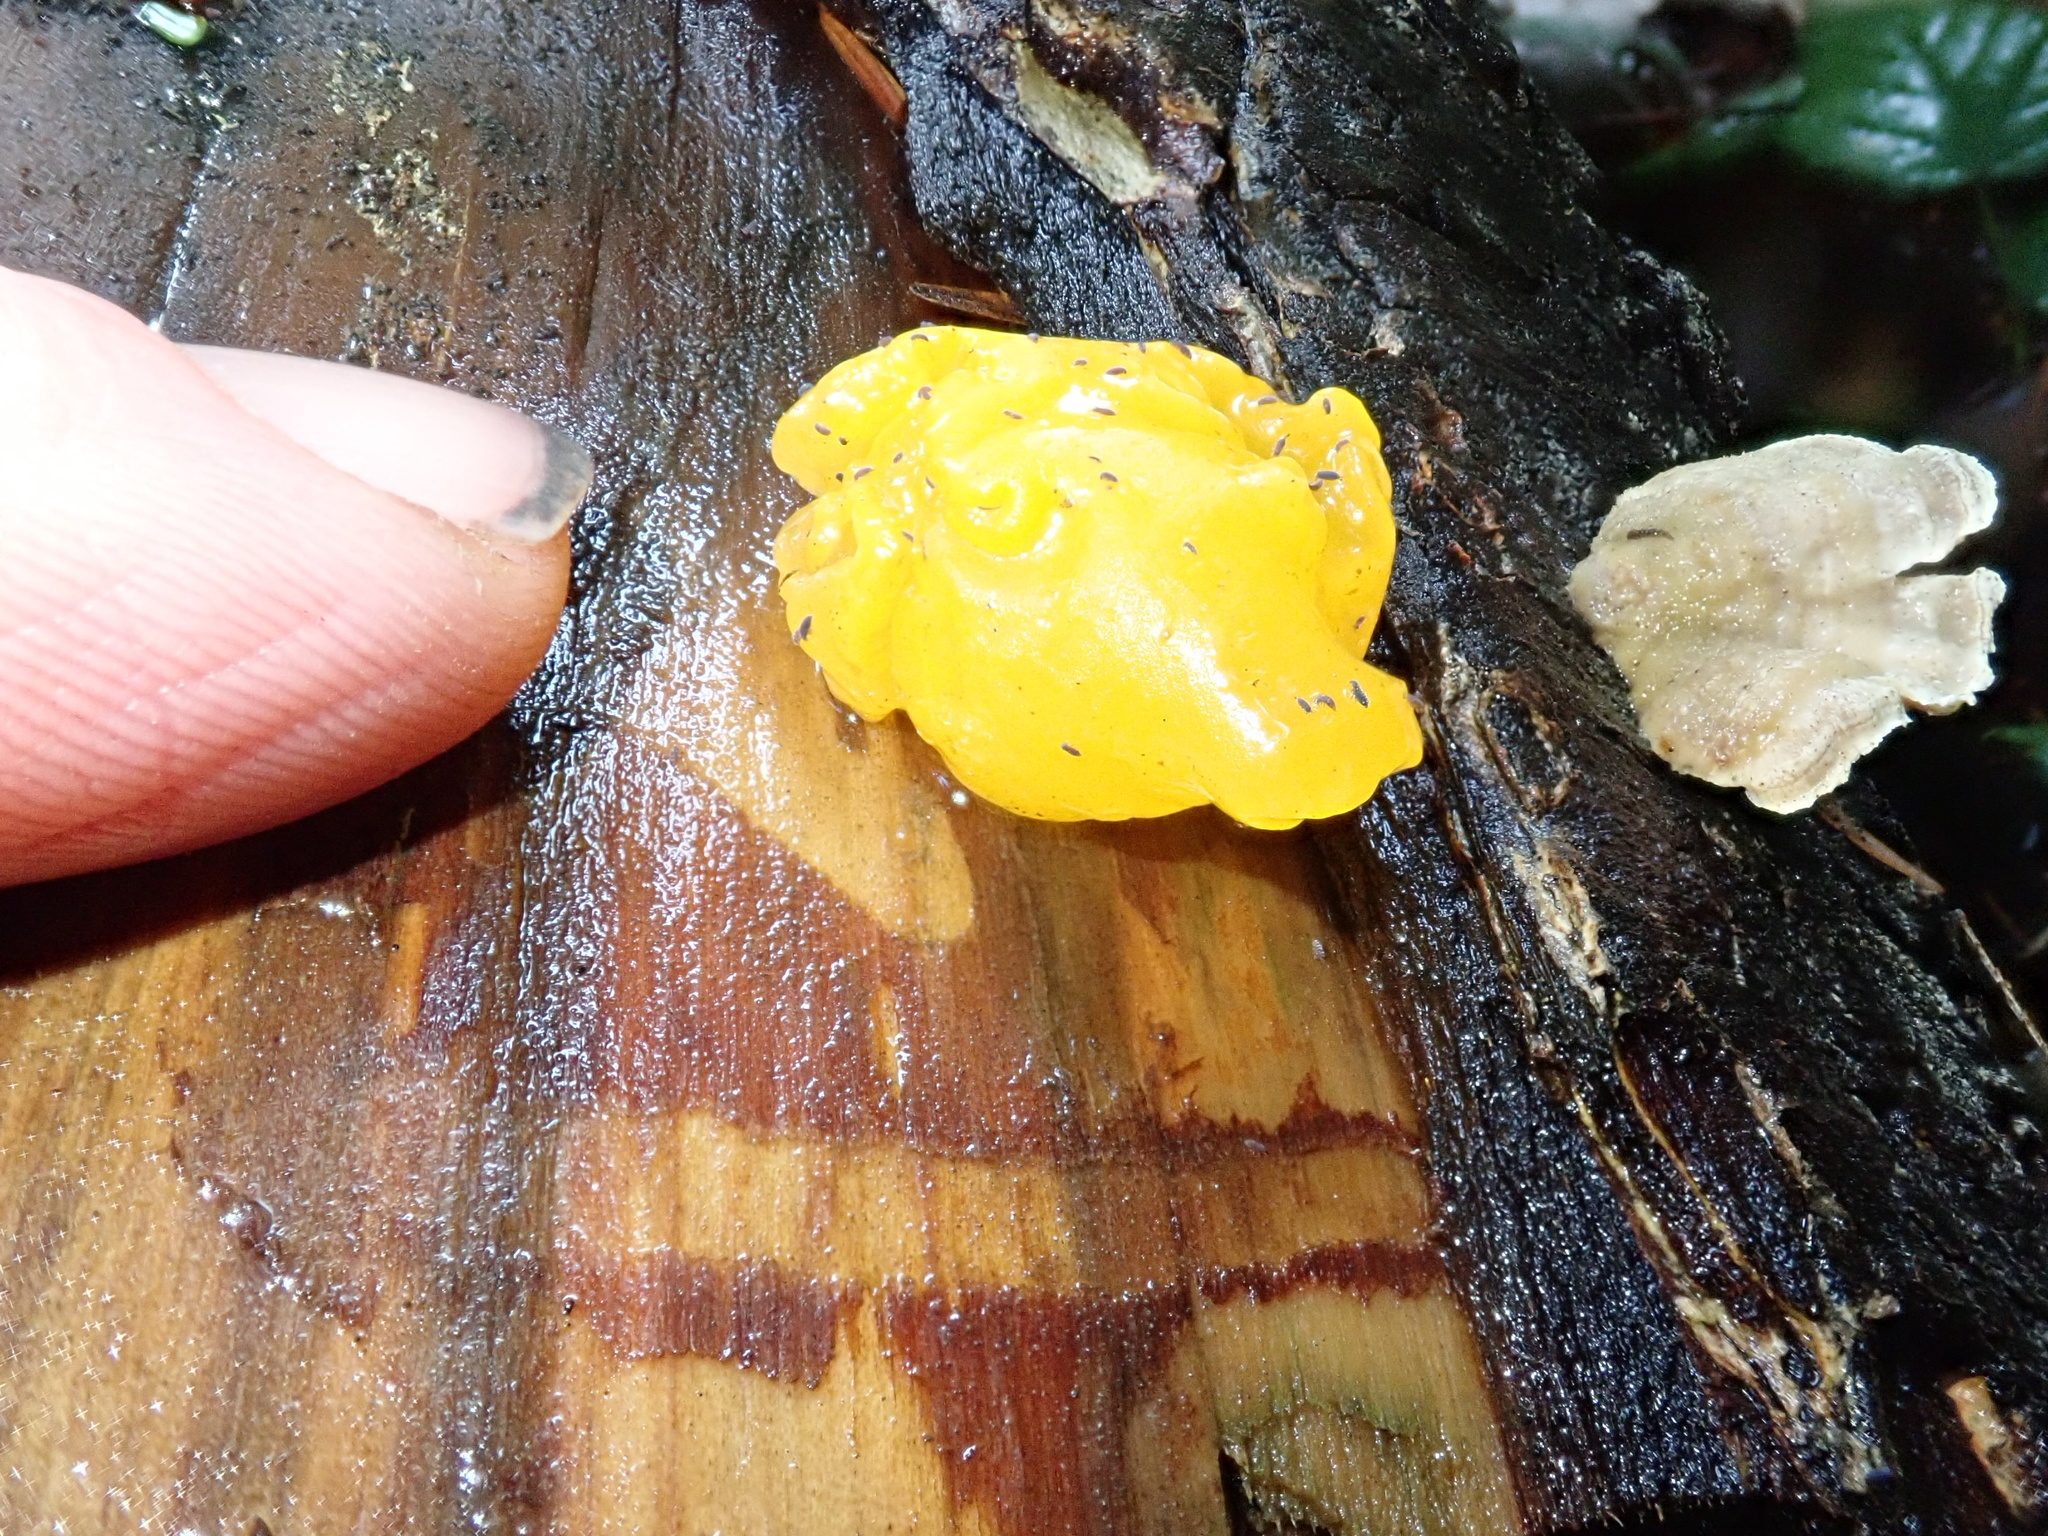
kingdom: Fungi
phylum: Basidiomycota
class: Tremellomycetes
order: Tremellales
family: Tremellaceae
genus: Tremella
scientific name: Tremella mesenterica
